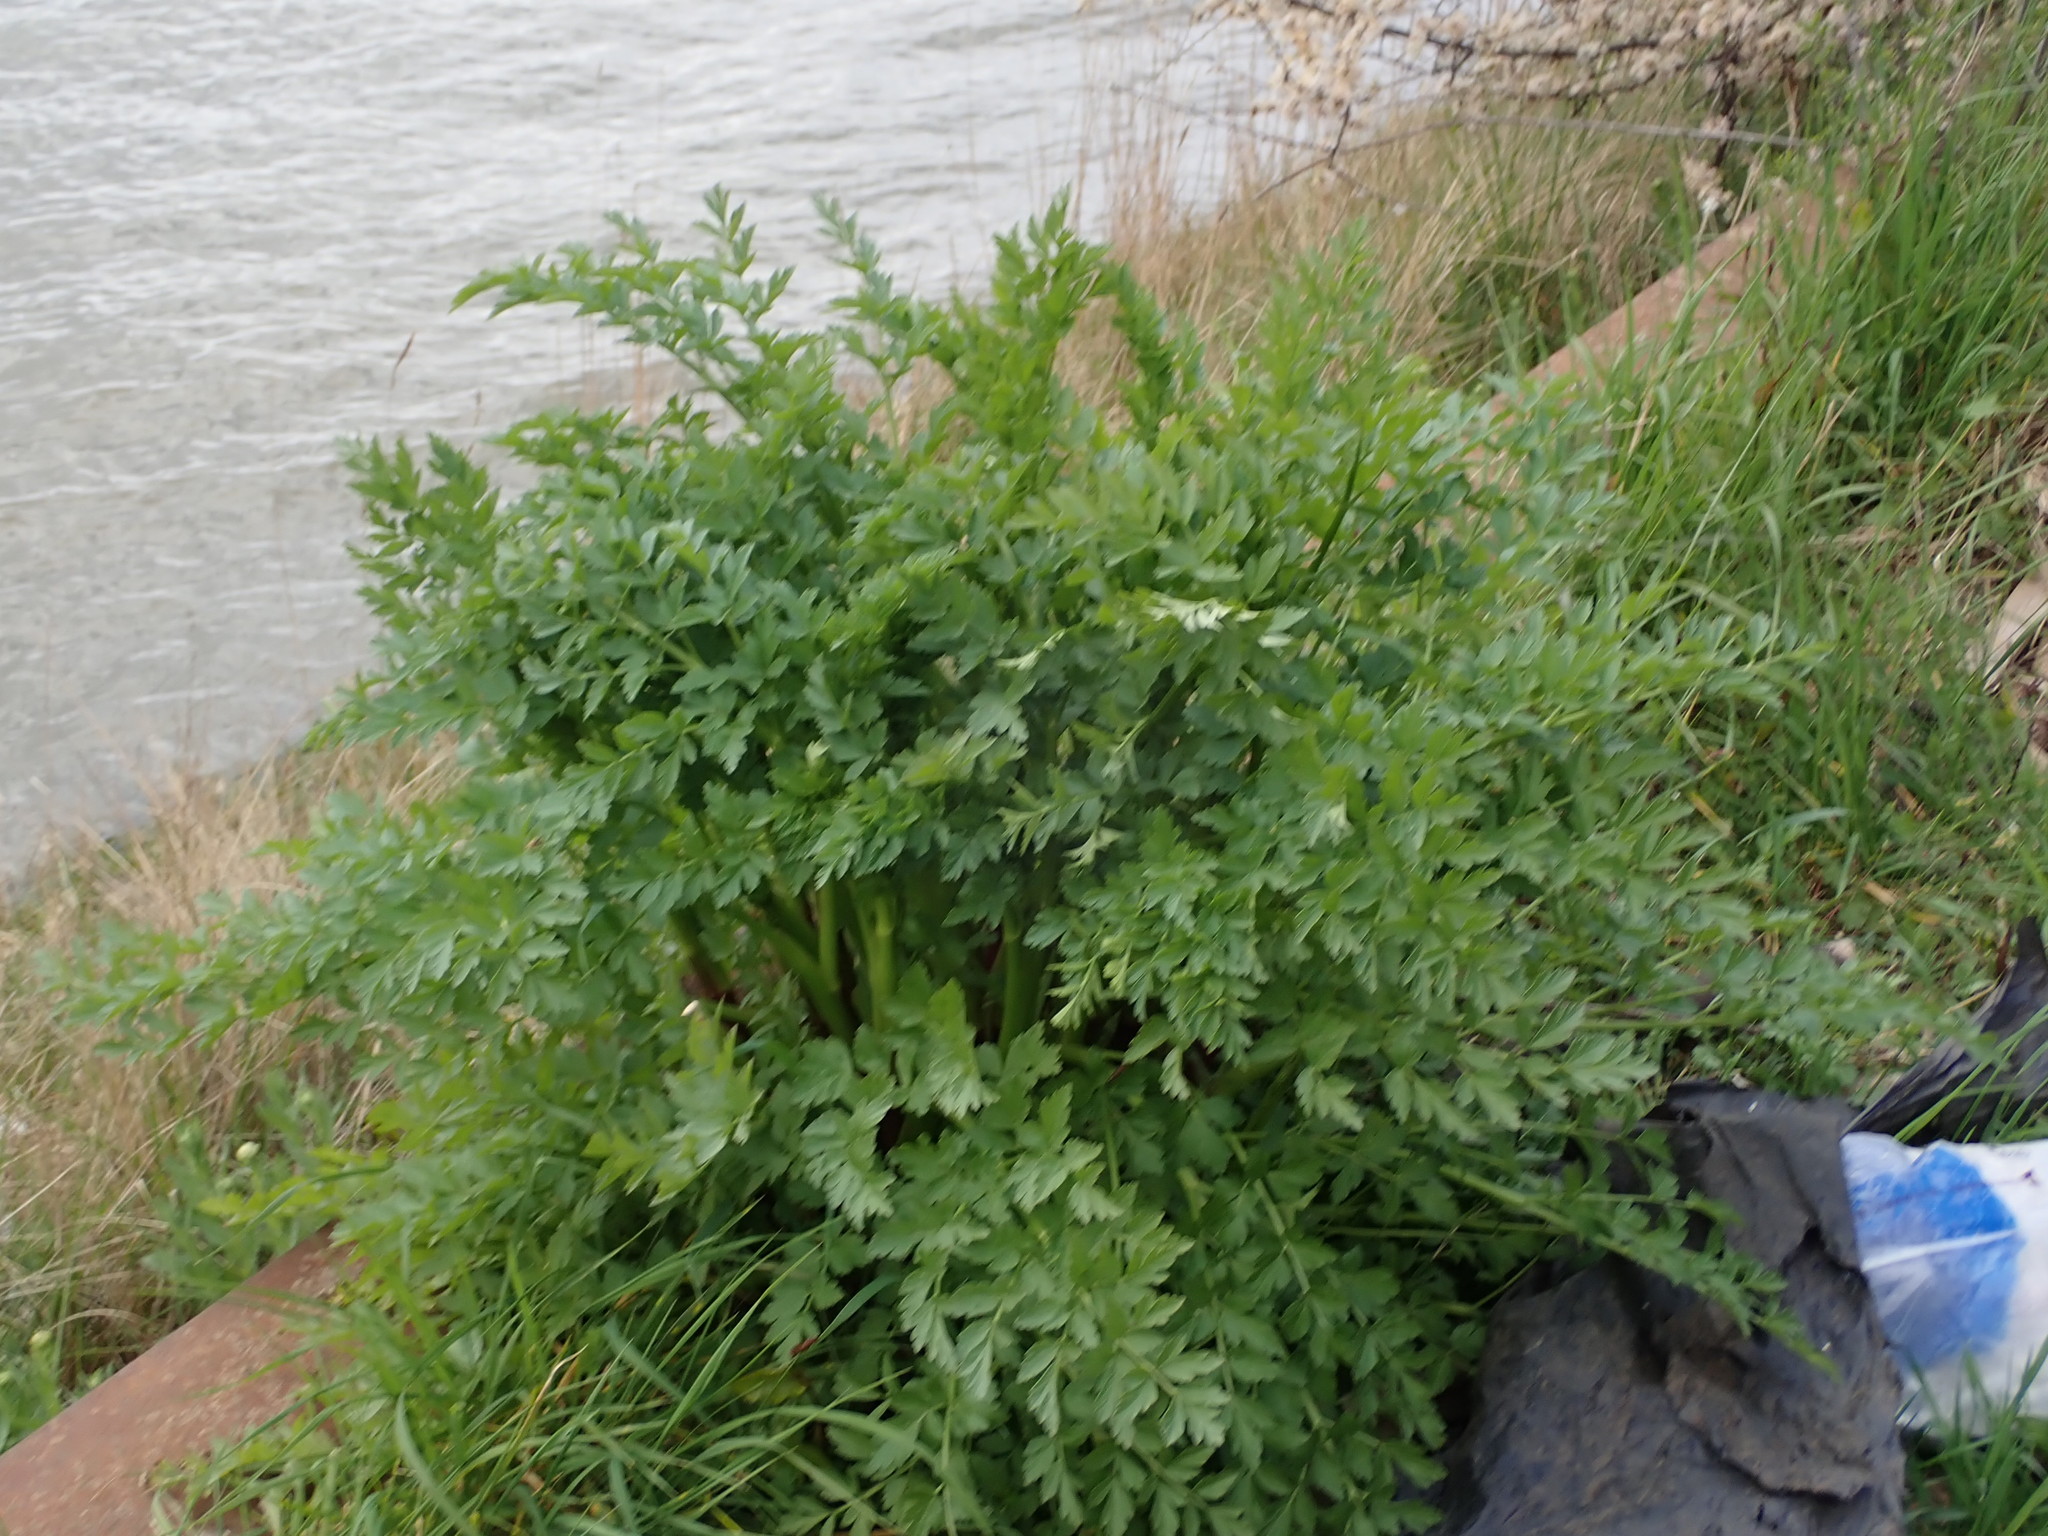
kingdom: Plantae
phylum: Tracheophyta
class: Magnoliopsida
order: Apiales
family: Apiaceae
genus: Oenanthe
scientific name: Oenanthe crocata
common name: Hemlock water-dropwort
